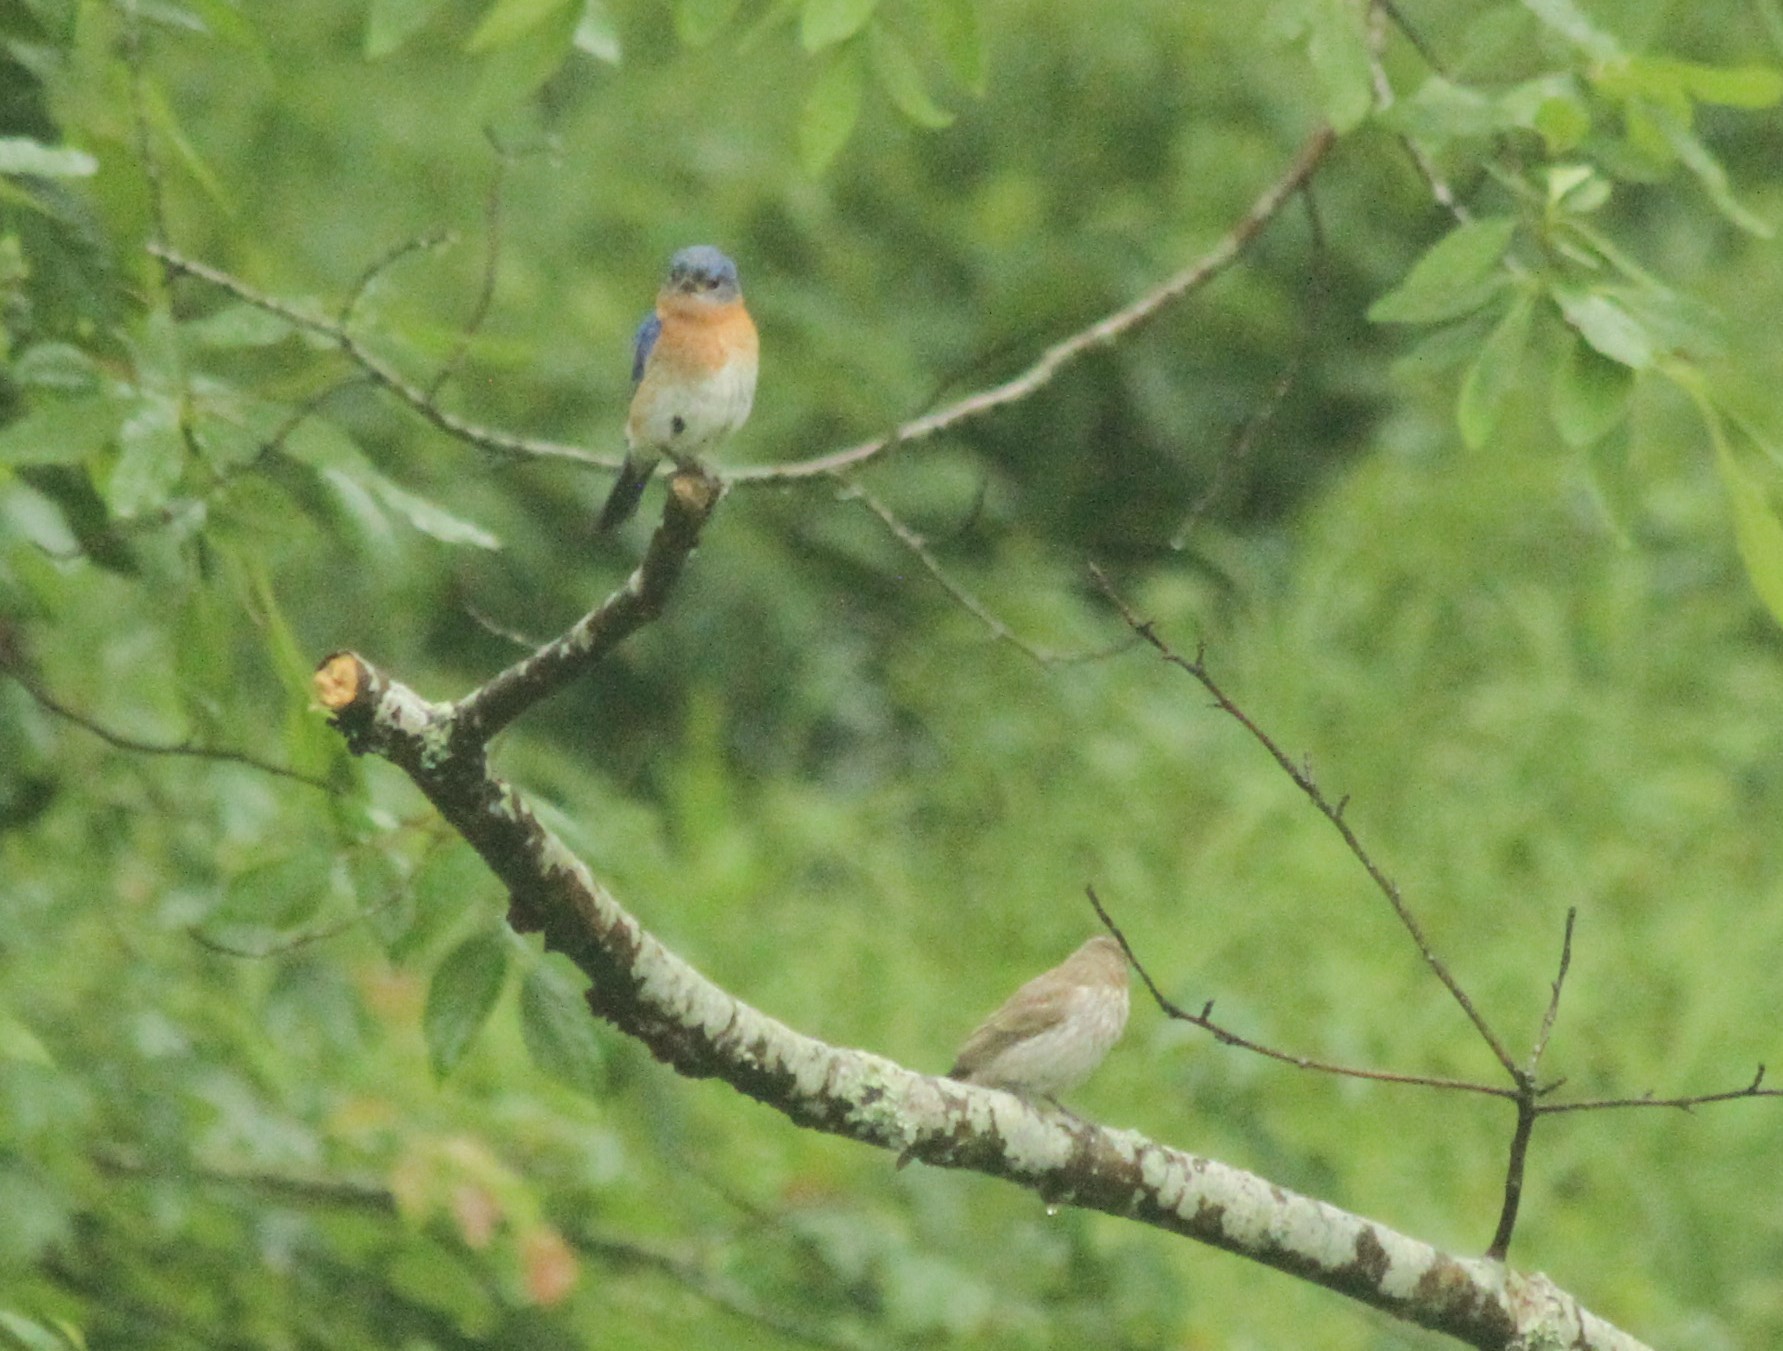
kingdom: Animalia
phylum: Chordata
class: Aves
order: Passeriformes
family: Turdidae
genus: Sialia
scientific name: Sialia sialis
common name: Eastern bluebird
